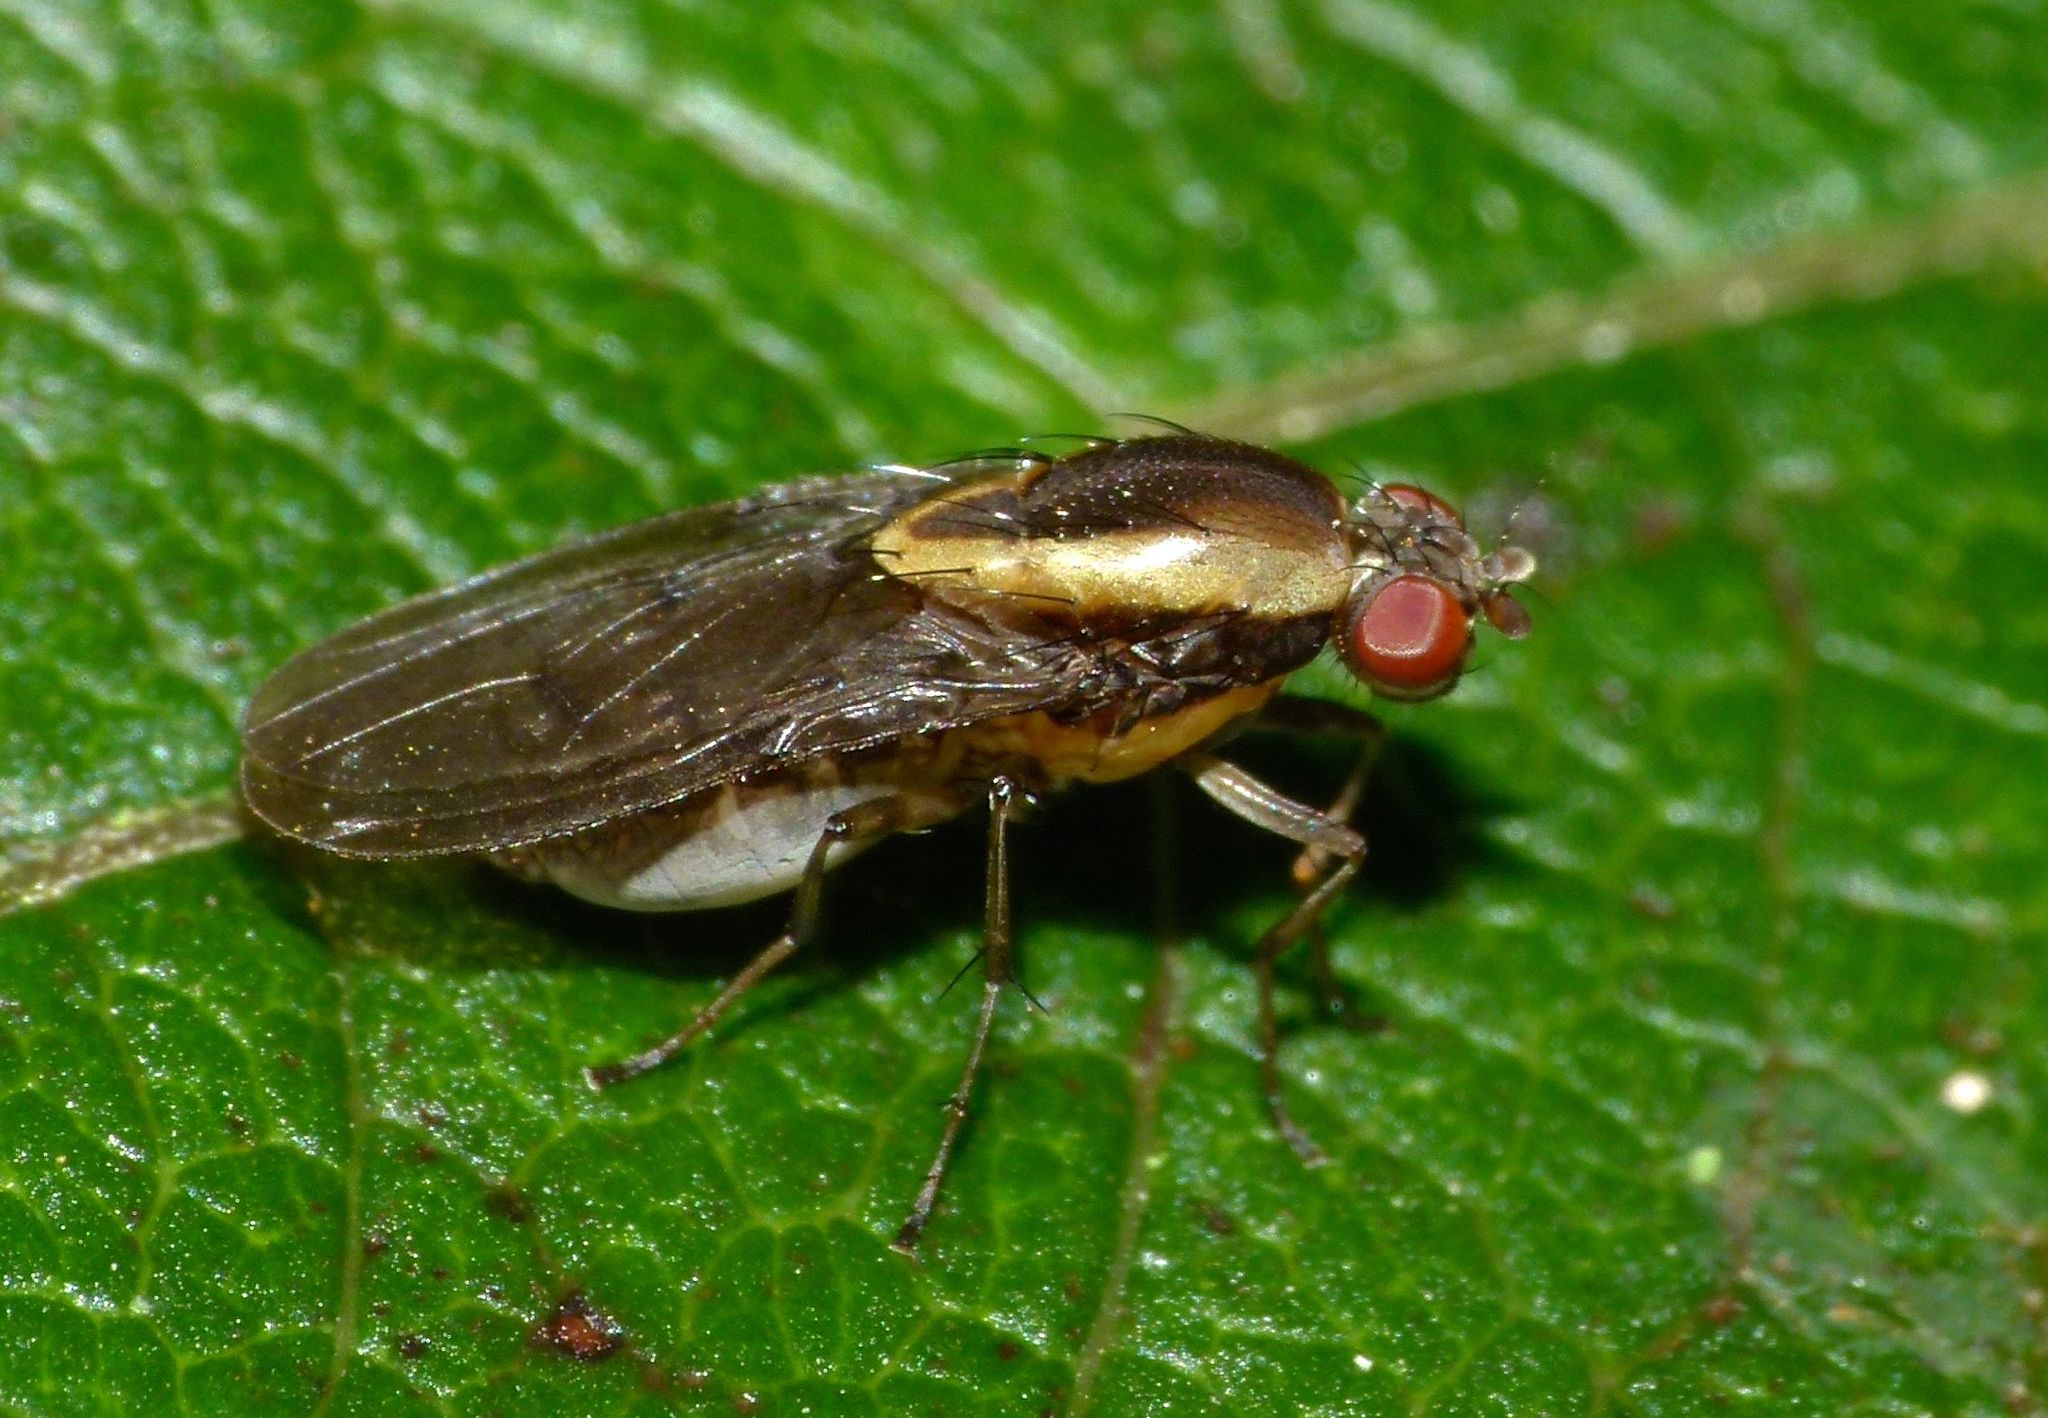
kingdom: Animalia
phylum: Arthropoda
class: Insecta
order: Diptera
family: Heleomyzidae
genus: Allophylopsis
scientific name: Allophylopsis scutellata
